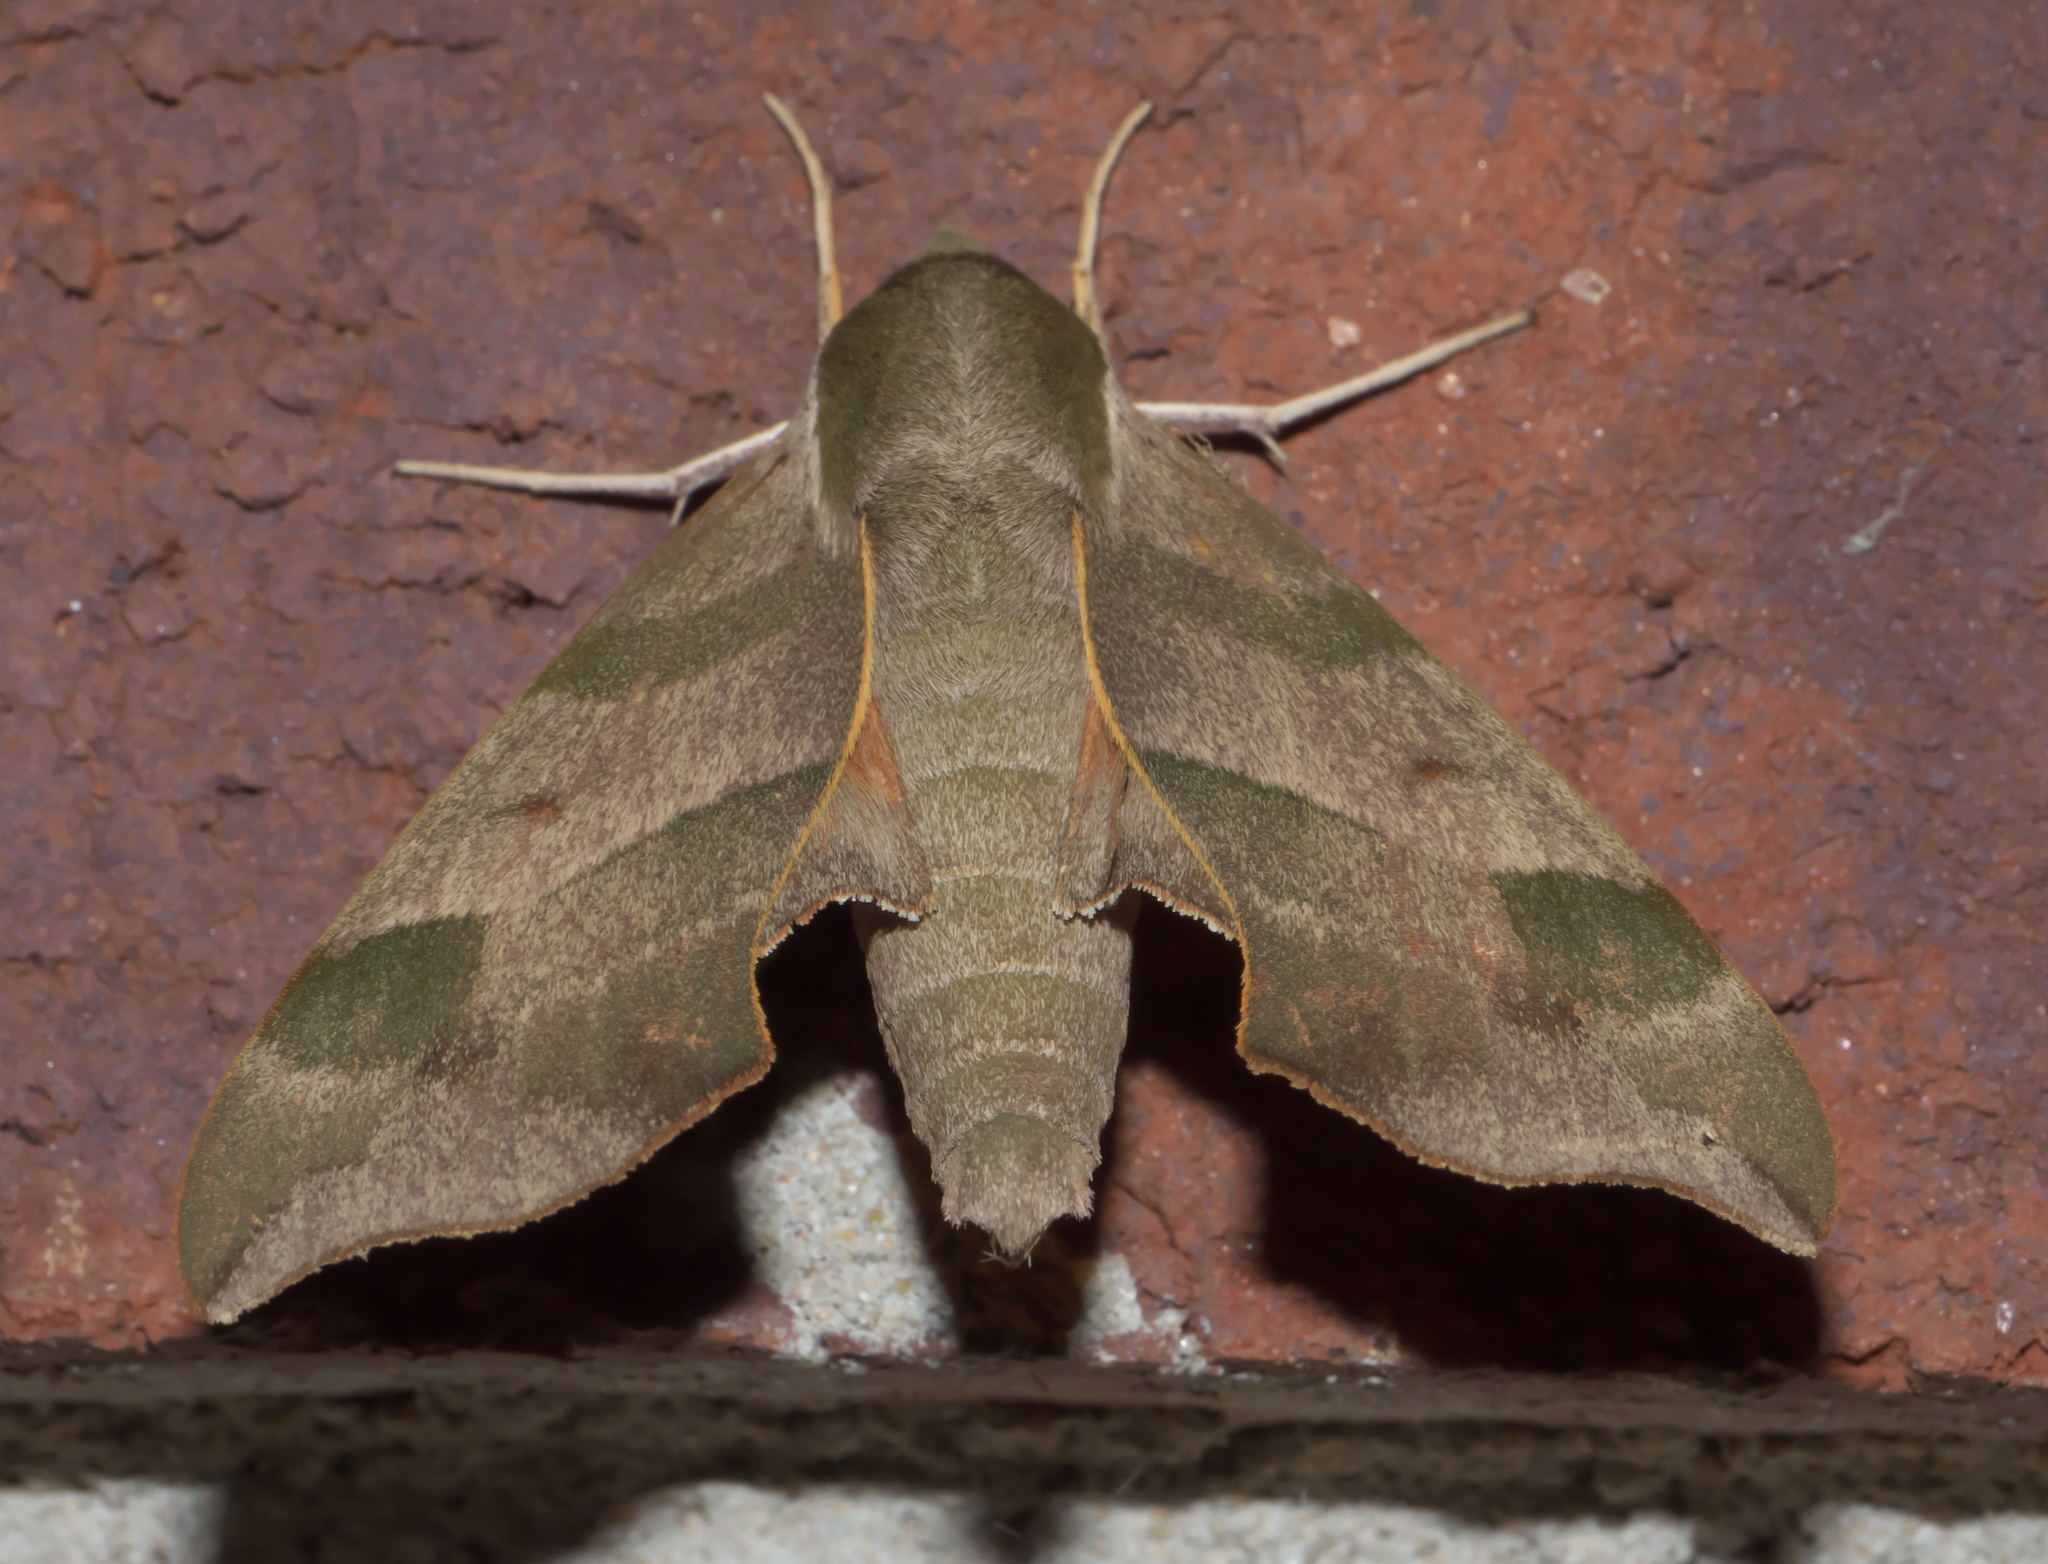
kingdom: Animalia
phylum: Arthropoda
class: Insecta
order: Lepidoptera
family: Sphingidae
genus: Darapsa
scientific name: Darapsa myron
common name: Hog sphinx
